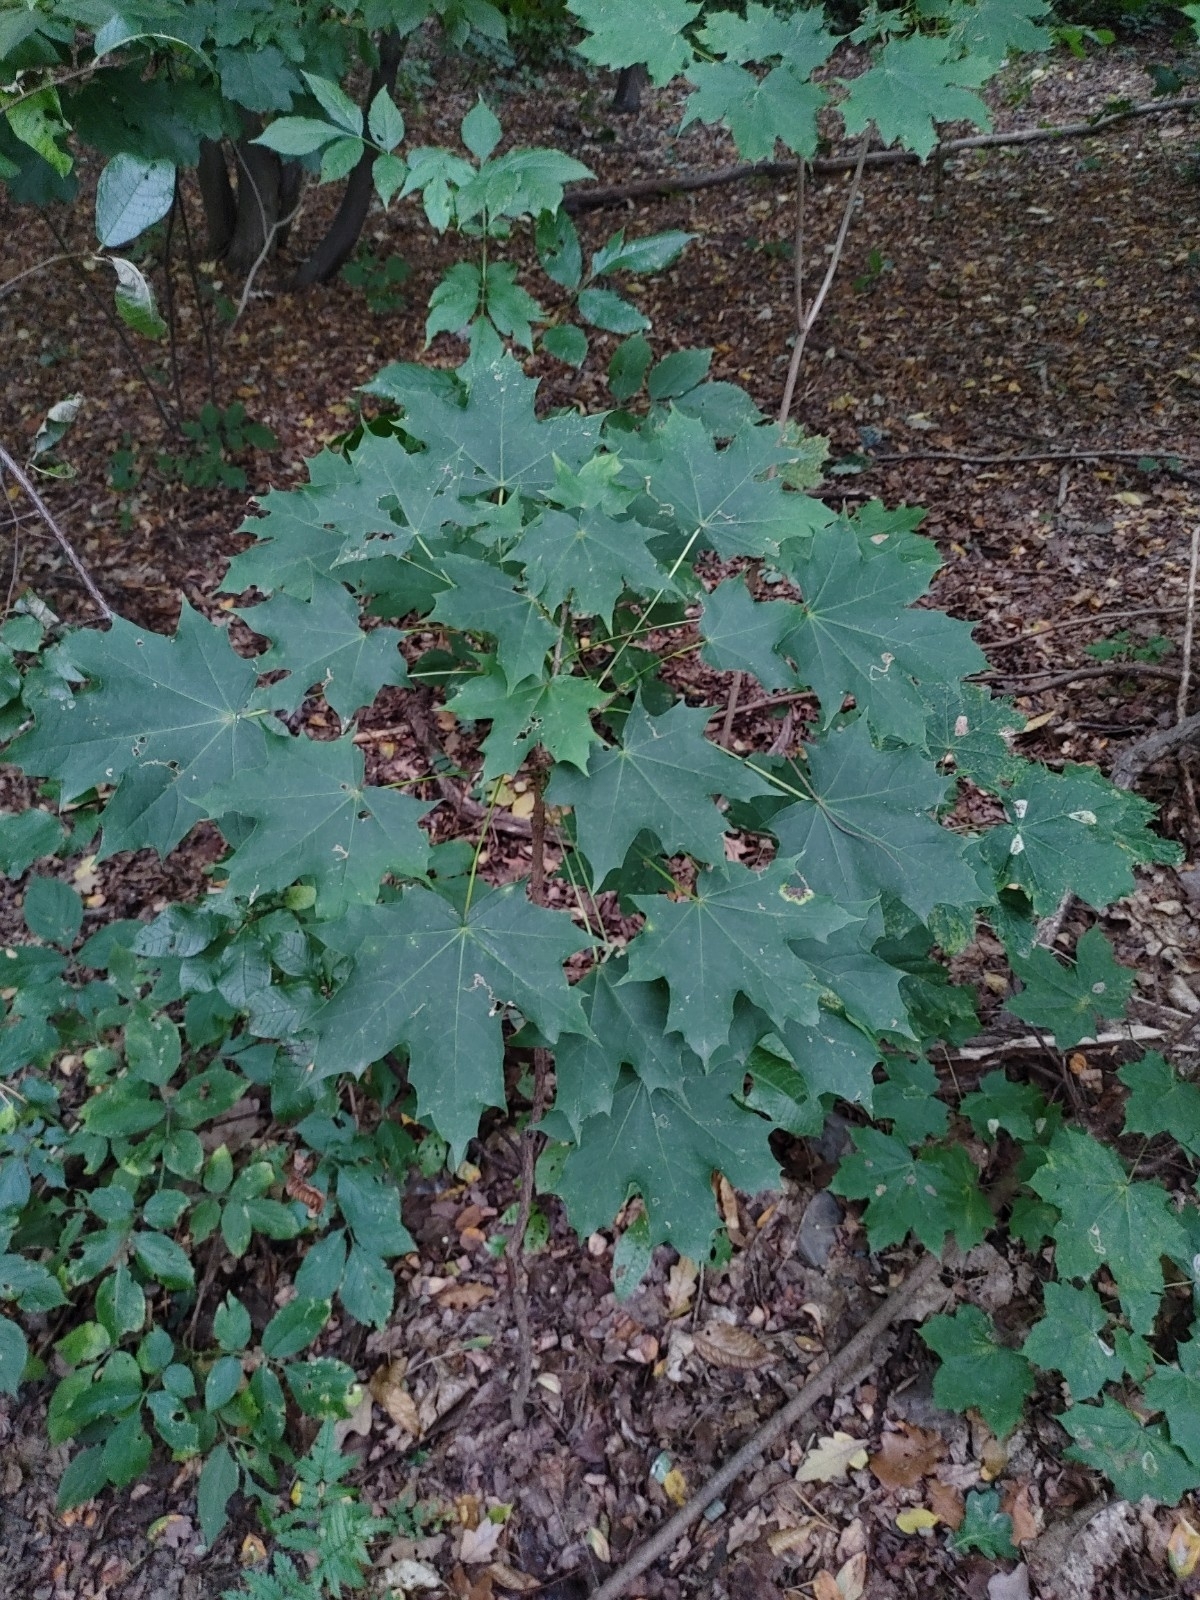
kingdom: Plantae
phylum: Tracheophyta
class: Magnoliopsida
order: Sapindales
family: Sapindaceae
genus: Acer
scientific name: Acer platanoides
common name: Norway maple
